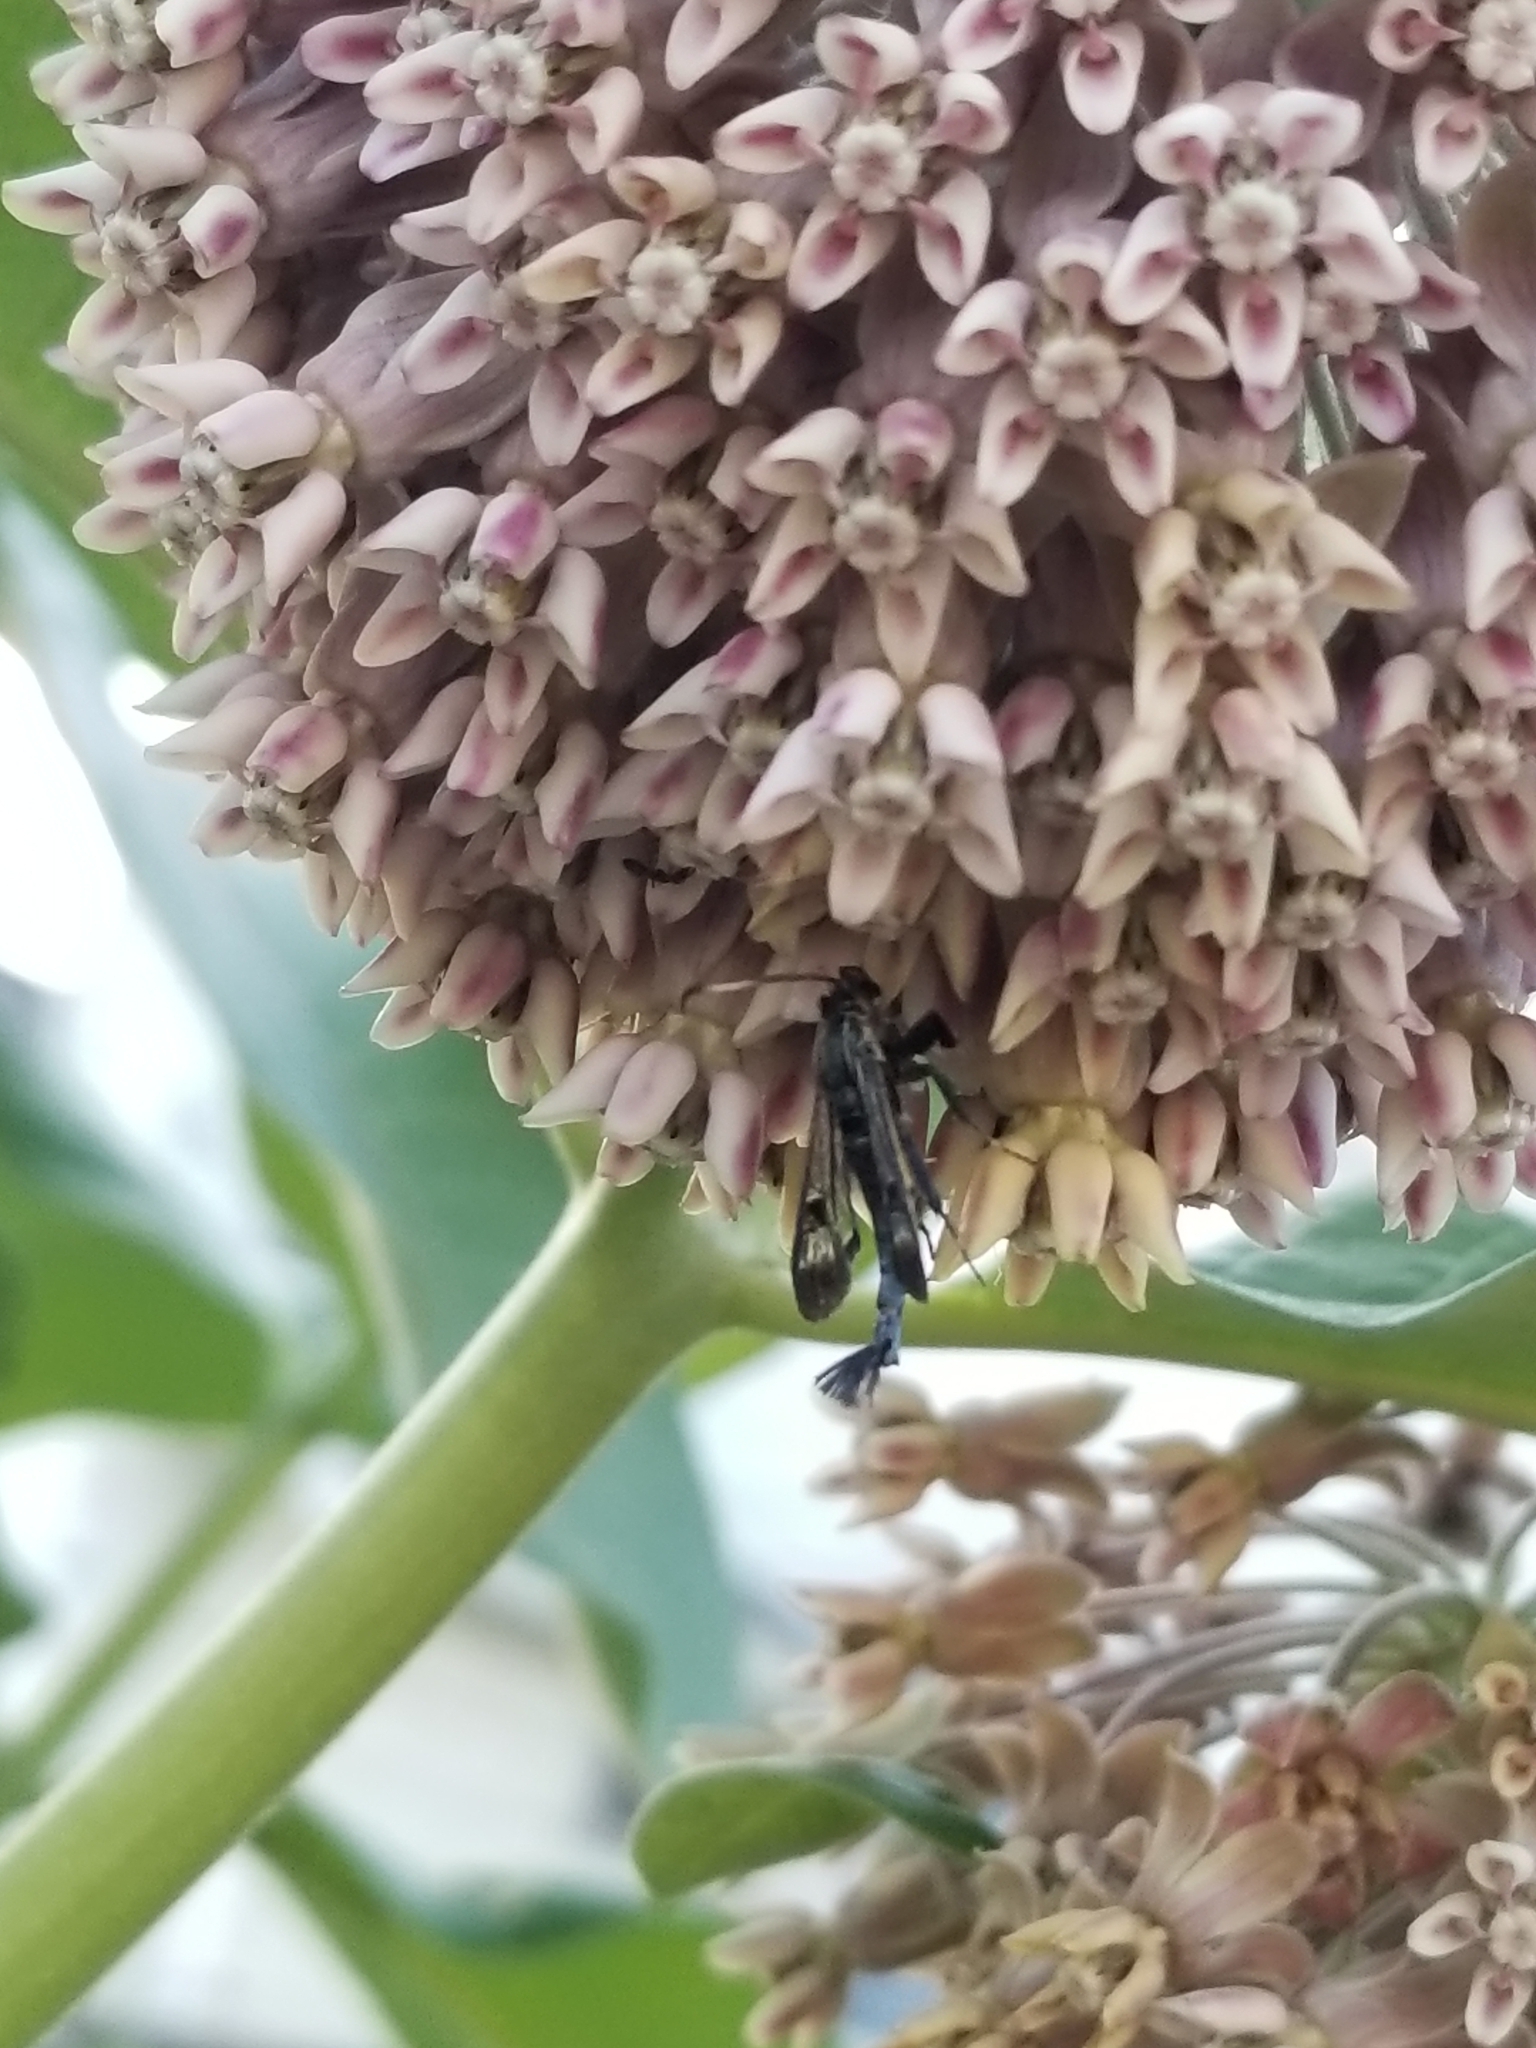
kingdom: Animalia
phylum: Arthropoda
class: Insecta
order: Lepidoptera
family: Sesiidae
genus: Albuna
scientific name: Albuna fraxini
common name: Virginia creeper clearwing
